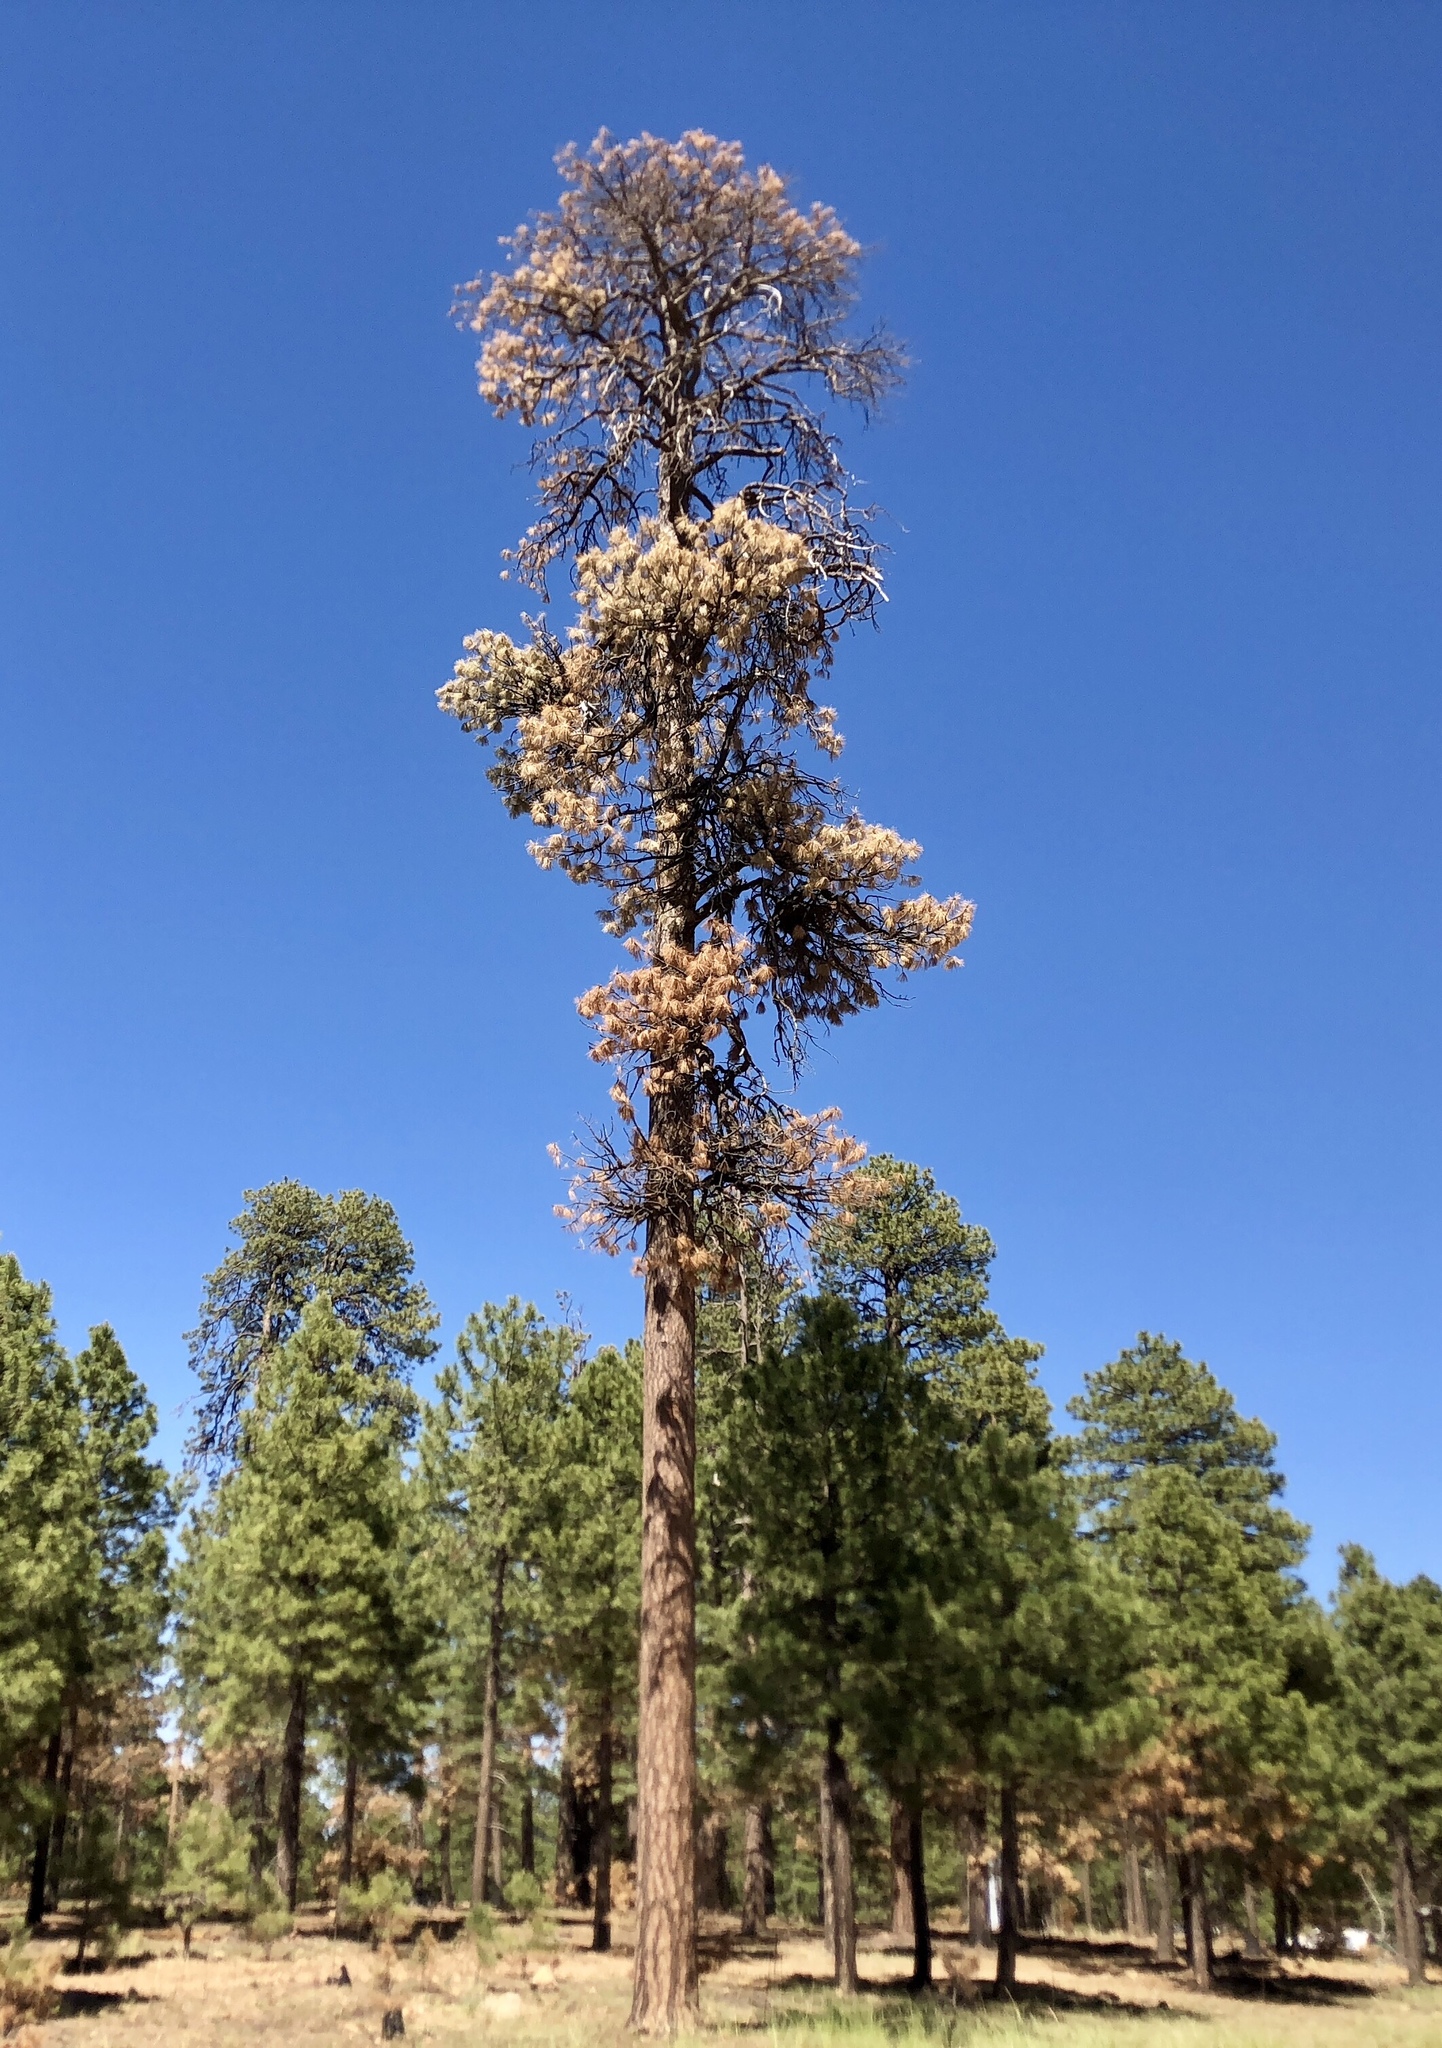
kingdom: Plantae
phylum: Tracheophyta
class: Pinopsida
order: Pinales
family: Pinaceae
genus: Pinus
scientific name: Pinus ponderosa
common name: Western yellow-pine
